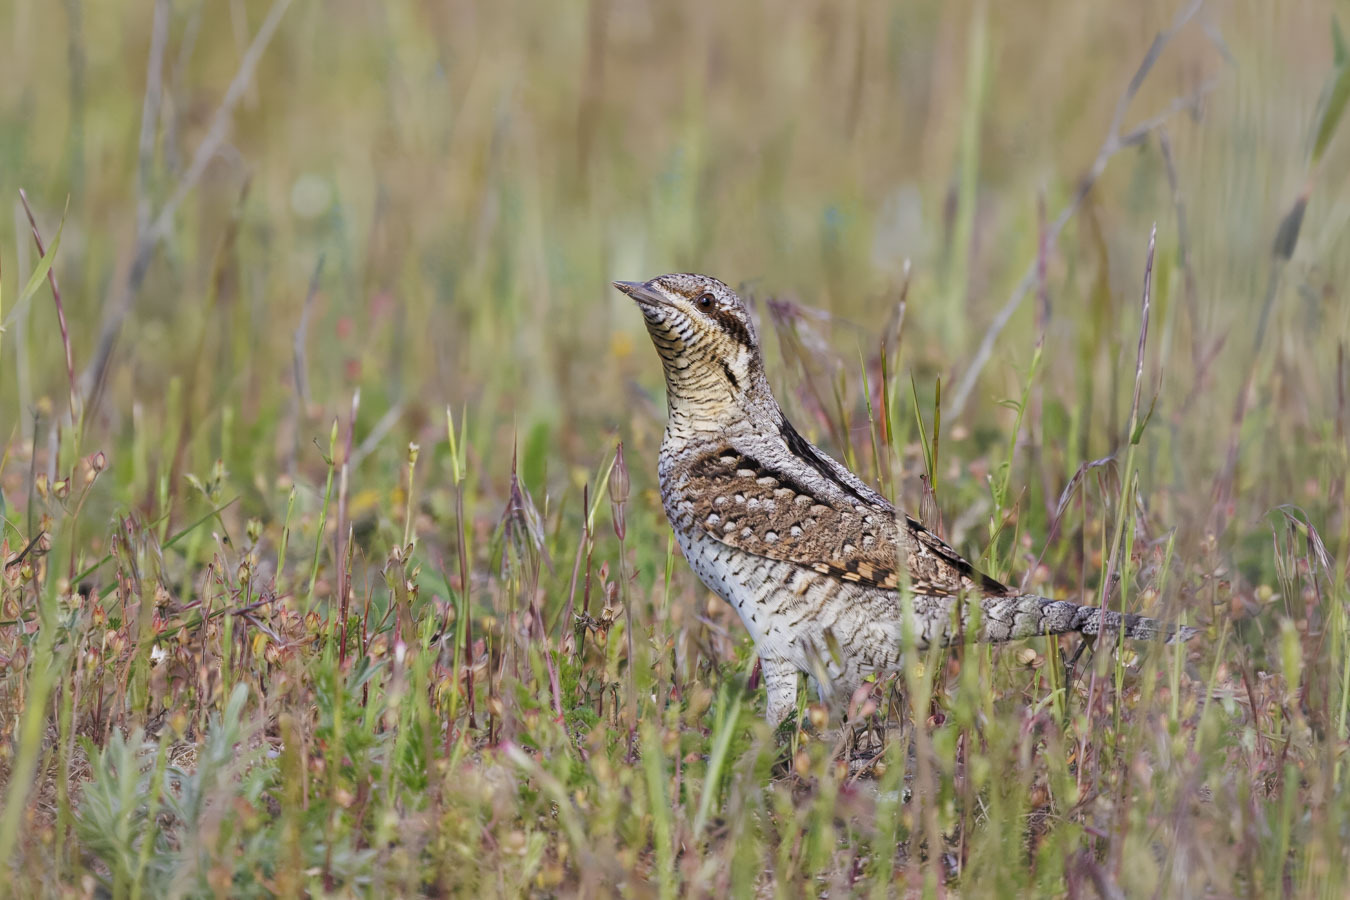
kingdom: Animalia
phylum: Chordata
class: Aves
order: Piciformes
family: Picidae
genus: Jynx
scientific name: Jynx torquilla
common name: Eurasian wryneck
